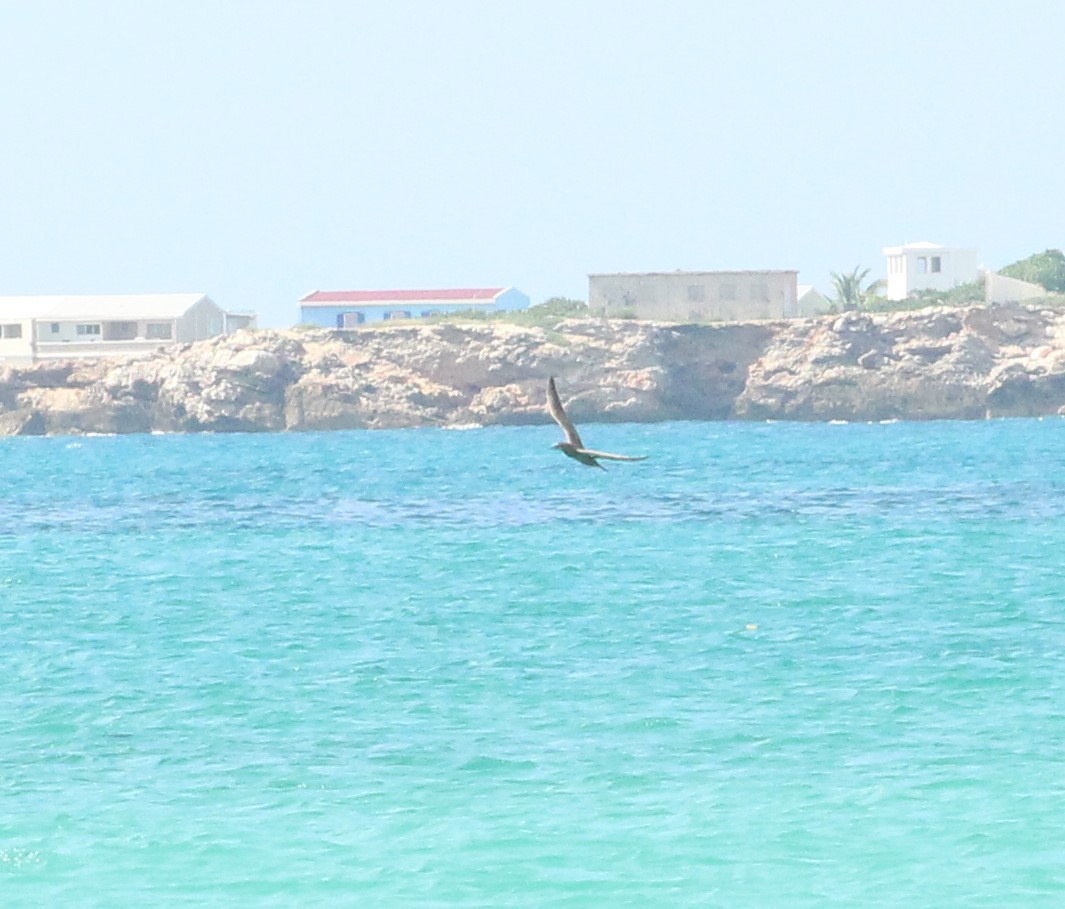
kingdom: Animalia
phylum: Chordata
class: Aves
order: Suliformes
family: Sulidae
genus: Sula
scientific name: Sula leucogaster
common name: Brown booby
